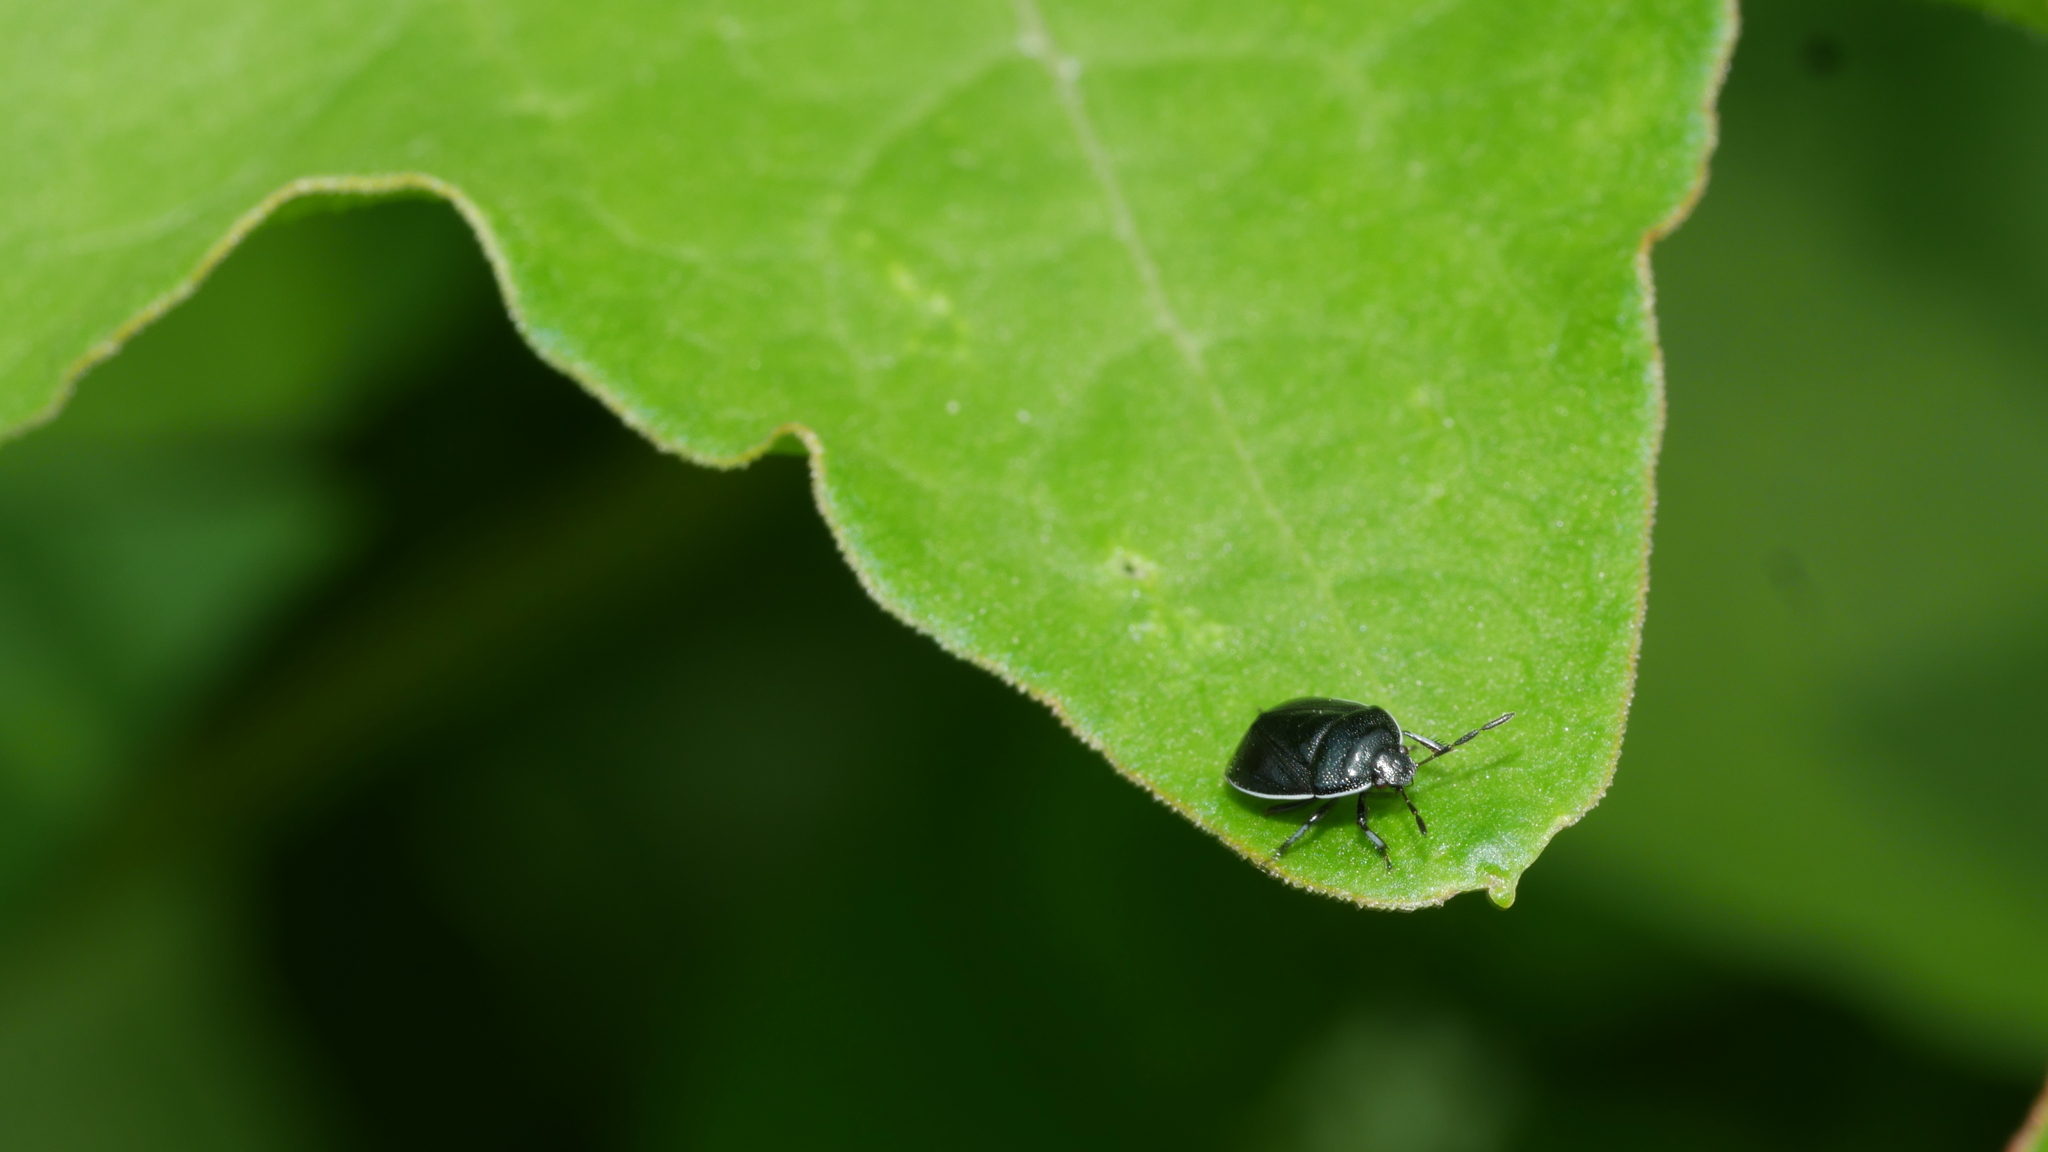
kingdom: Animalia
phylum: Arthropoda
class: Insecta
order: Hemiptera
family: Cydnidae
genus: Sehirus
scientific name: Sehirus cinctus
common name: White-margined burrower bug
